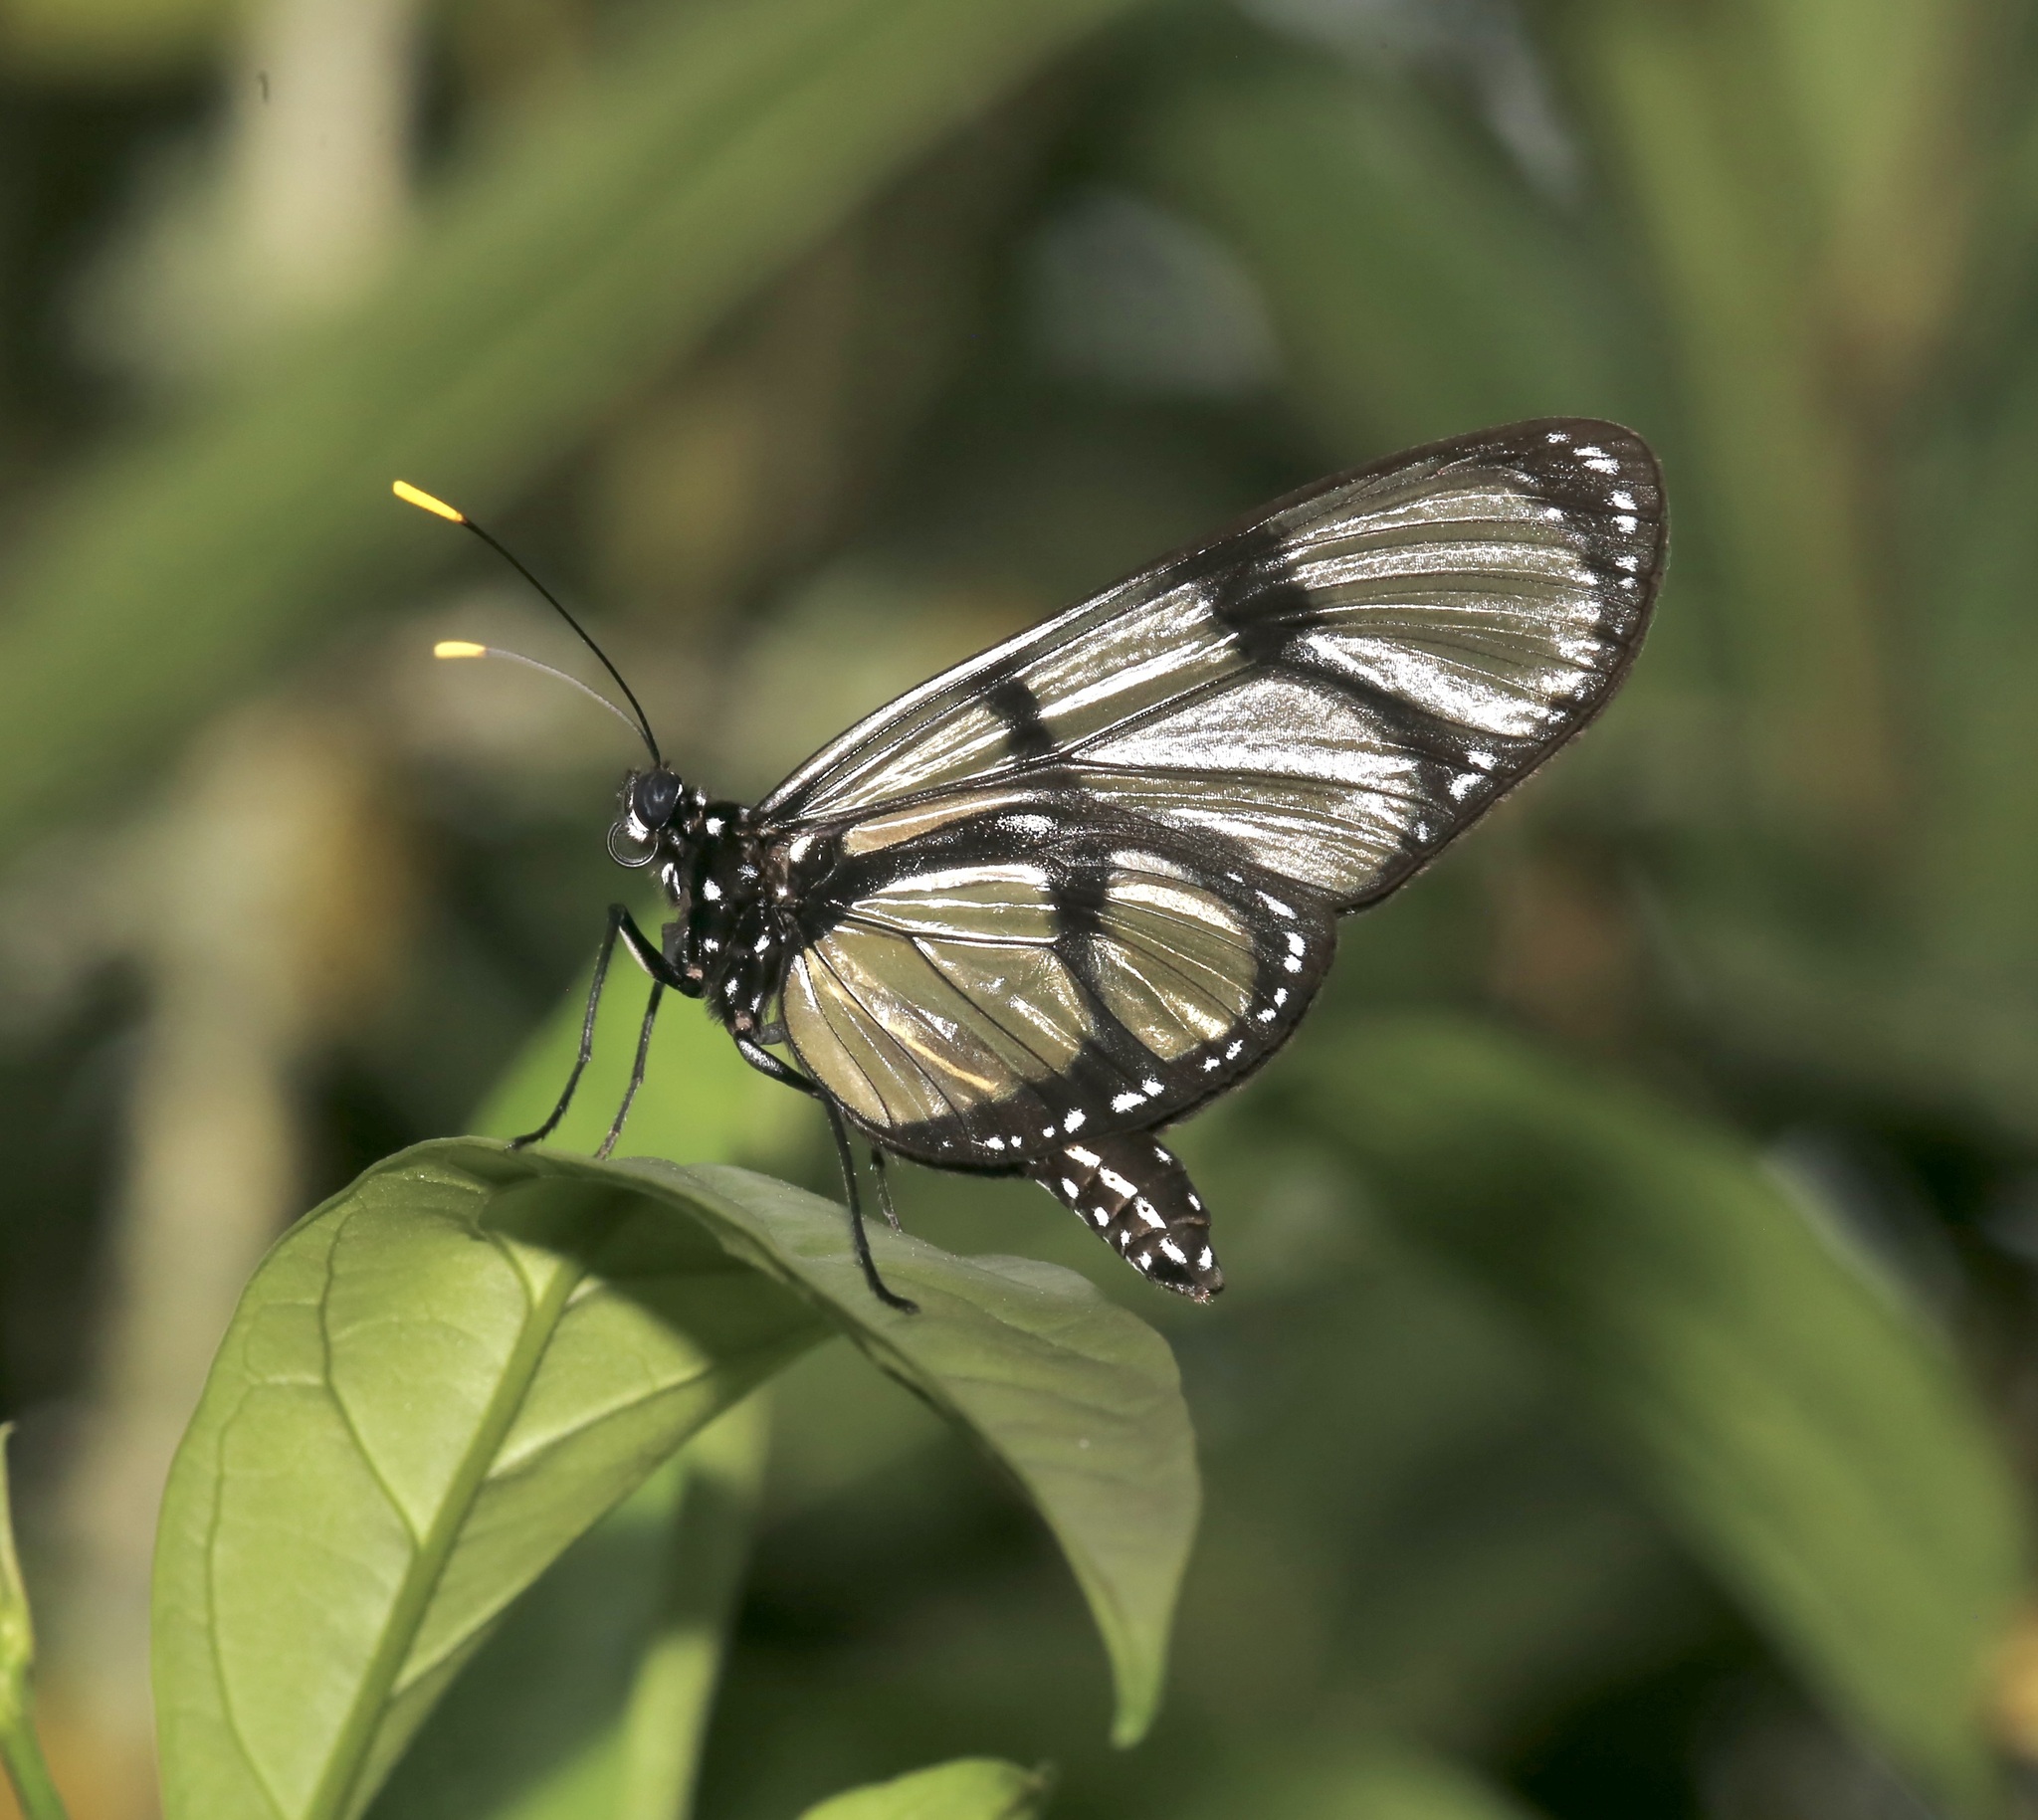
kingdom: Animalia
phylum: Arthropoda
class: Insecta
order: Lepidoptera
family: Nymphalidae
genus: Methona
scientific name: Methona confusa
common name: Confusa tigerwing
